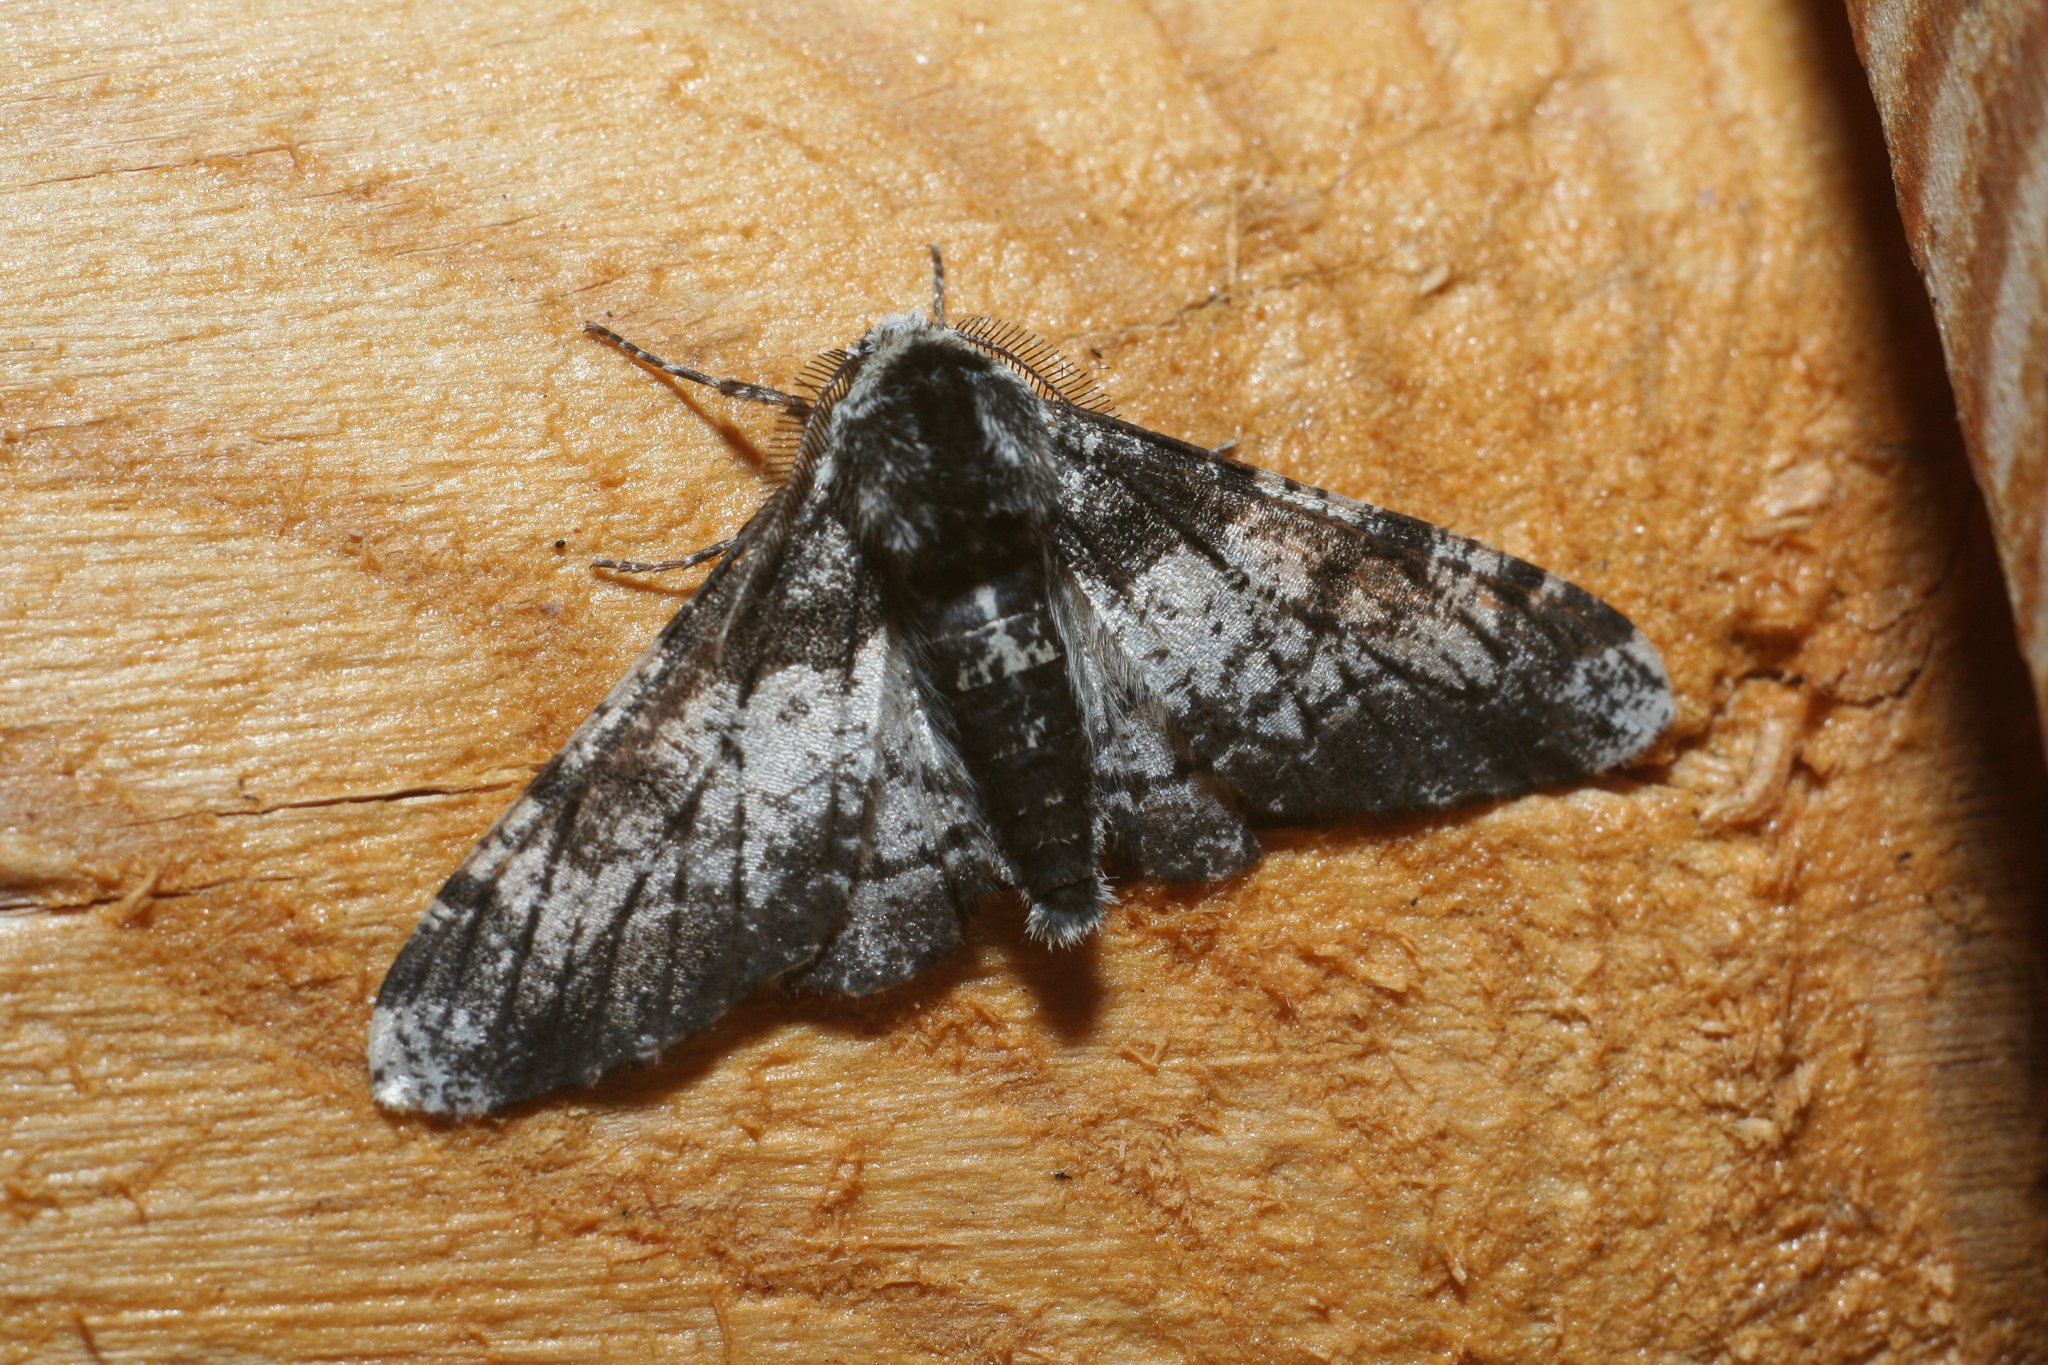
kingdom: Animalia
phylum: Arthropoda
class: Insecta
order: Lepidoptera
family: Geometridae
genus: Biston
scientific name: Biston betularia
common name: Peppered moth
